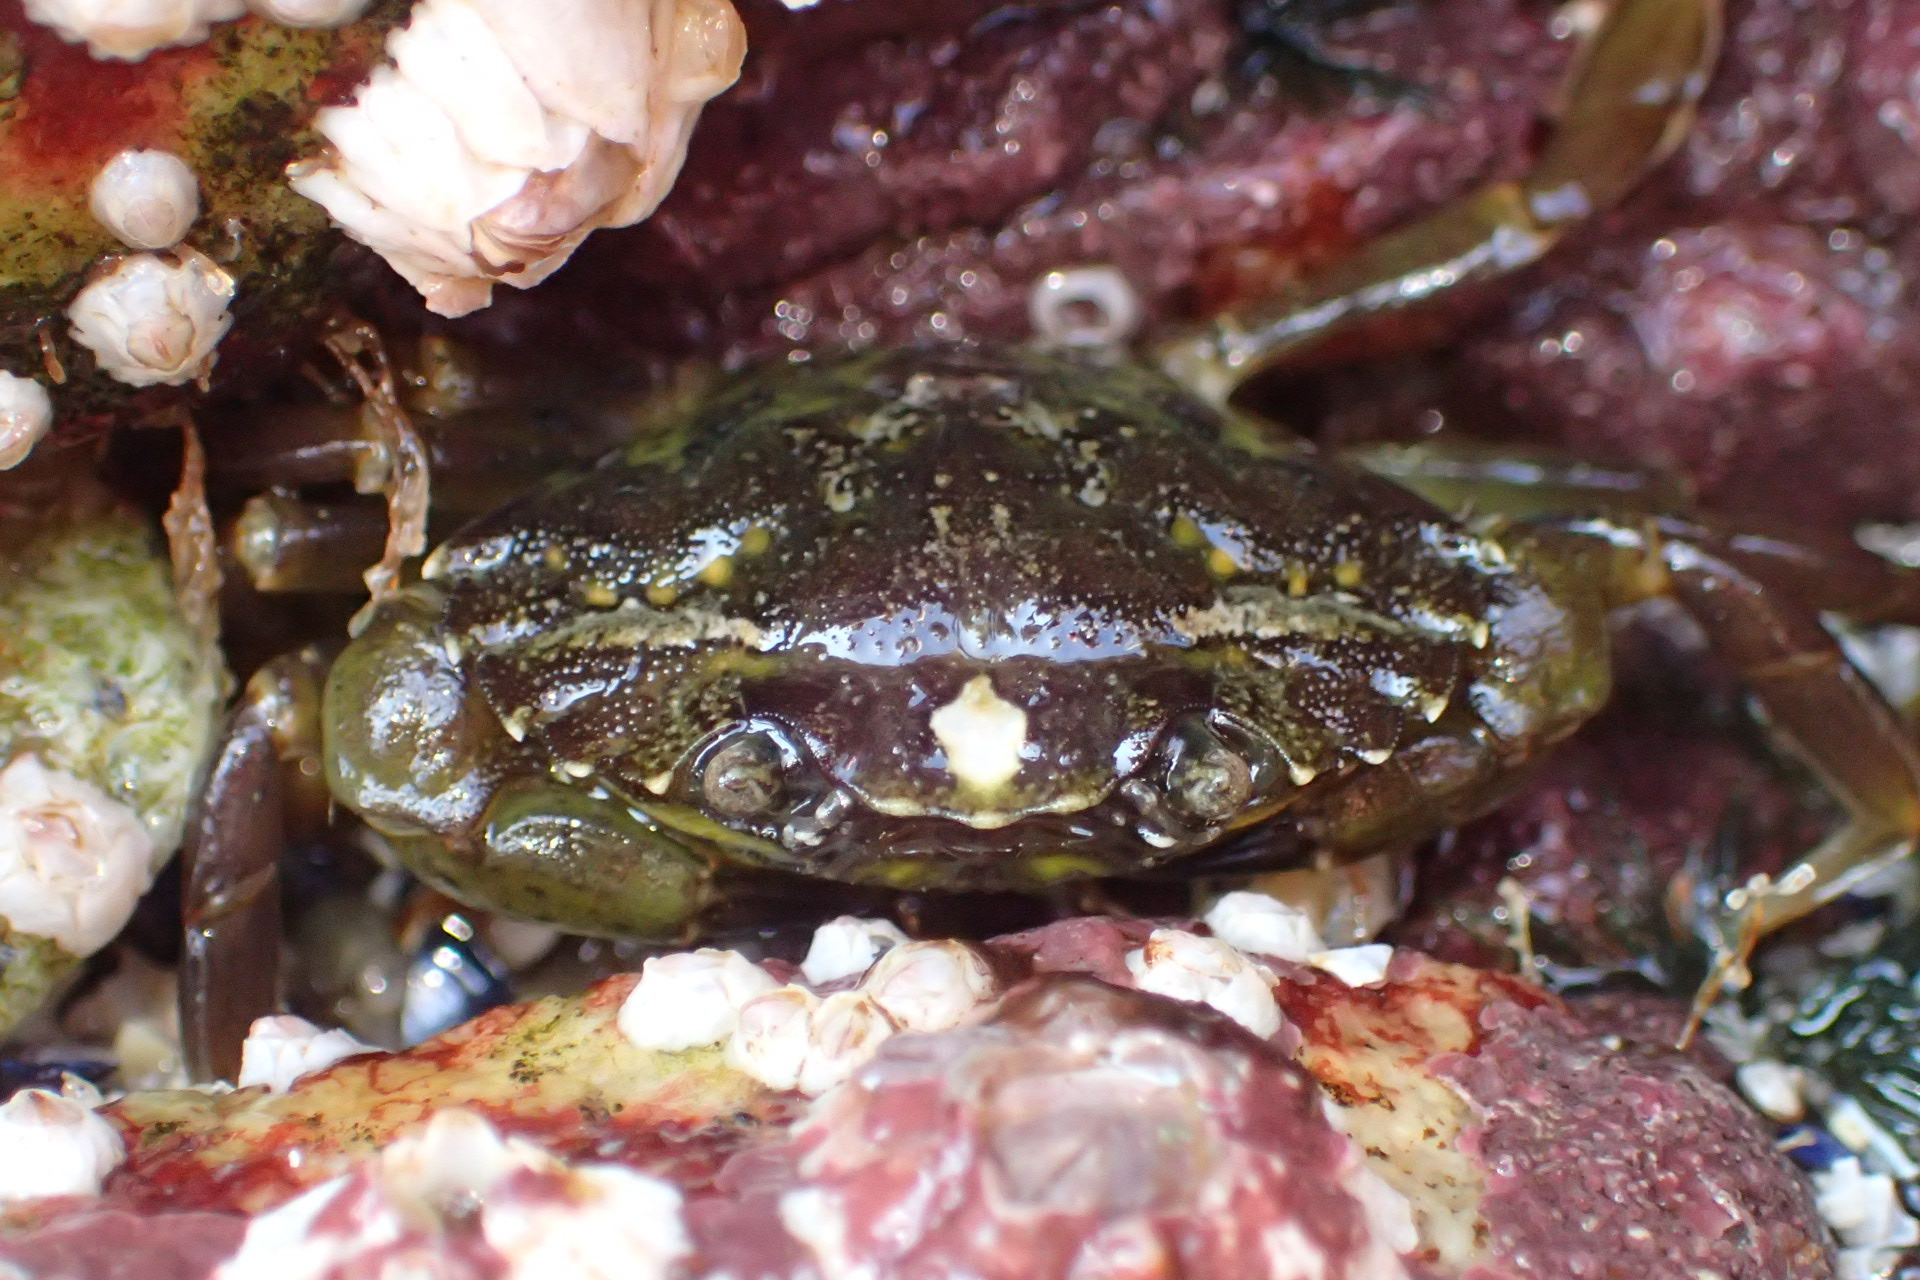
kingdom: Animalia
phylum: Arthropoda
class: Malacostraca
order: Decapoda
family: Carcinidae
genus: Carcinus
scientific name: Carcinus maenas
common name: European green crab
